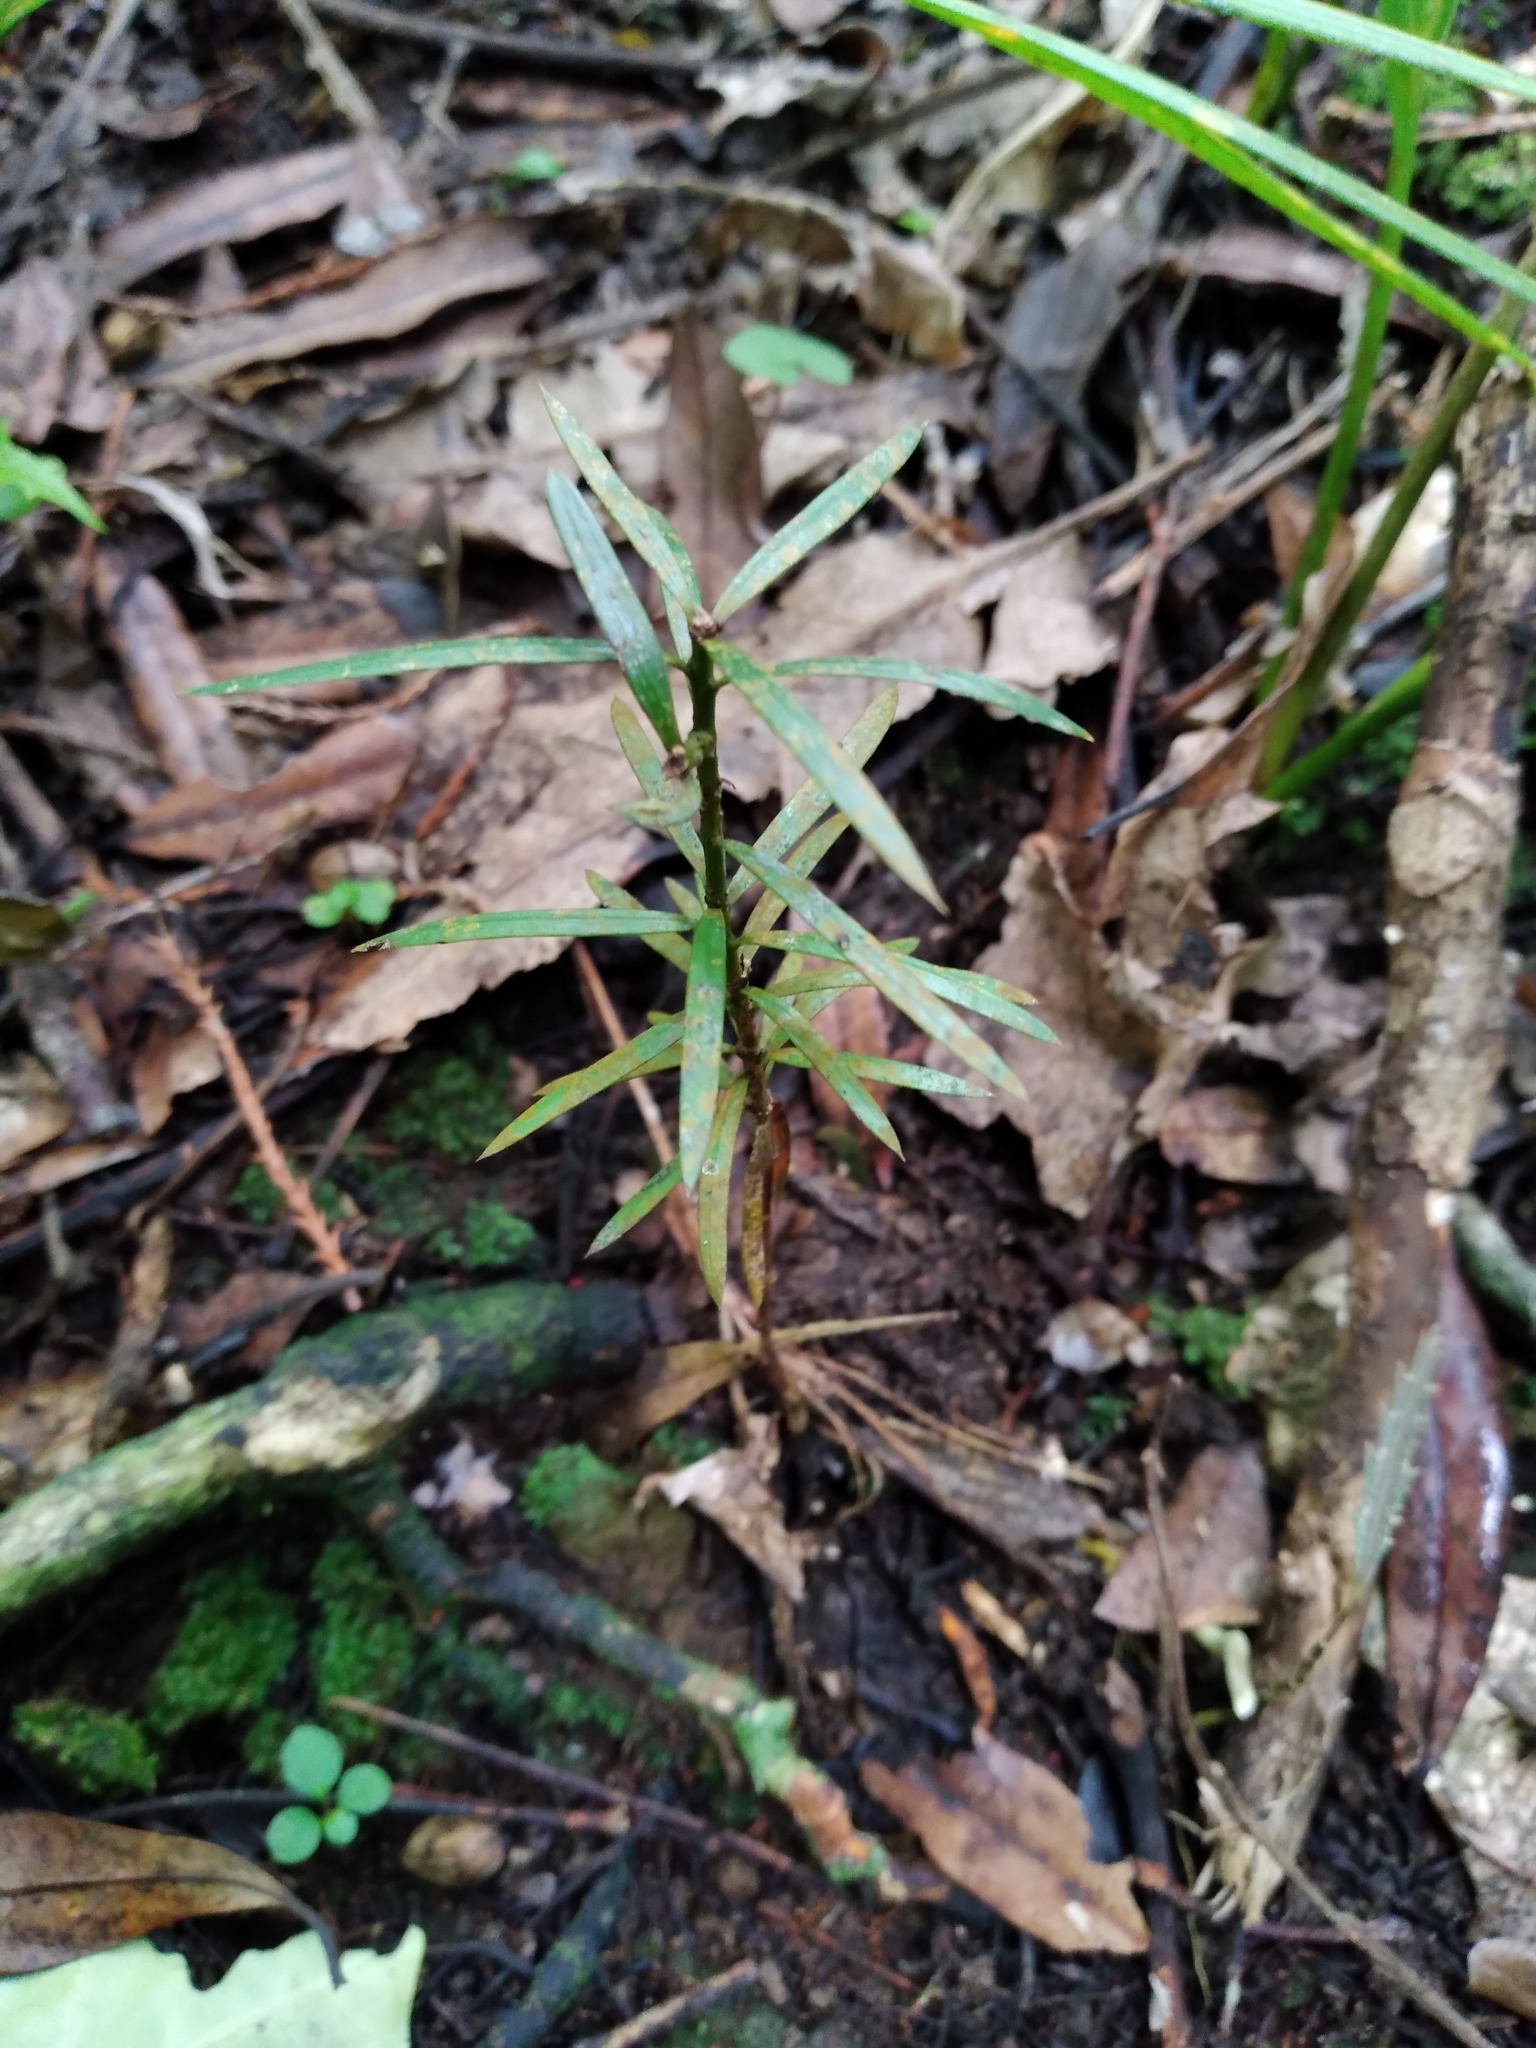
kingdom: Plantae
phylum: Tracheophyta
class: Pinopsida
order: Pinales
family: Podocarpaceae
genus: Podocarpus
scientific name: Podocarpus totara
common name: Totara
